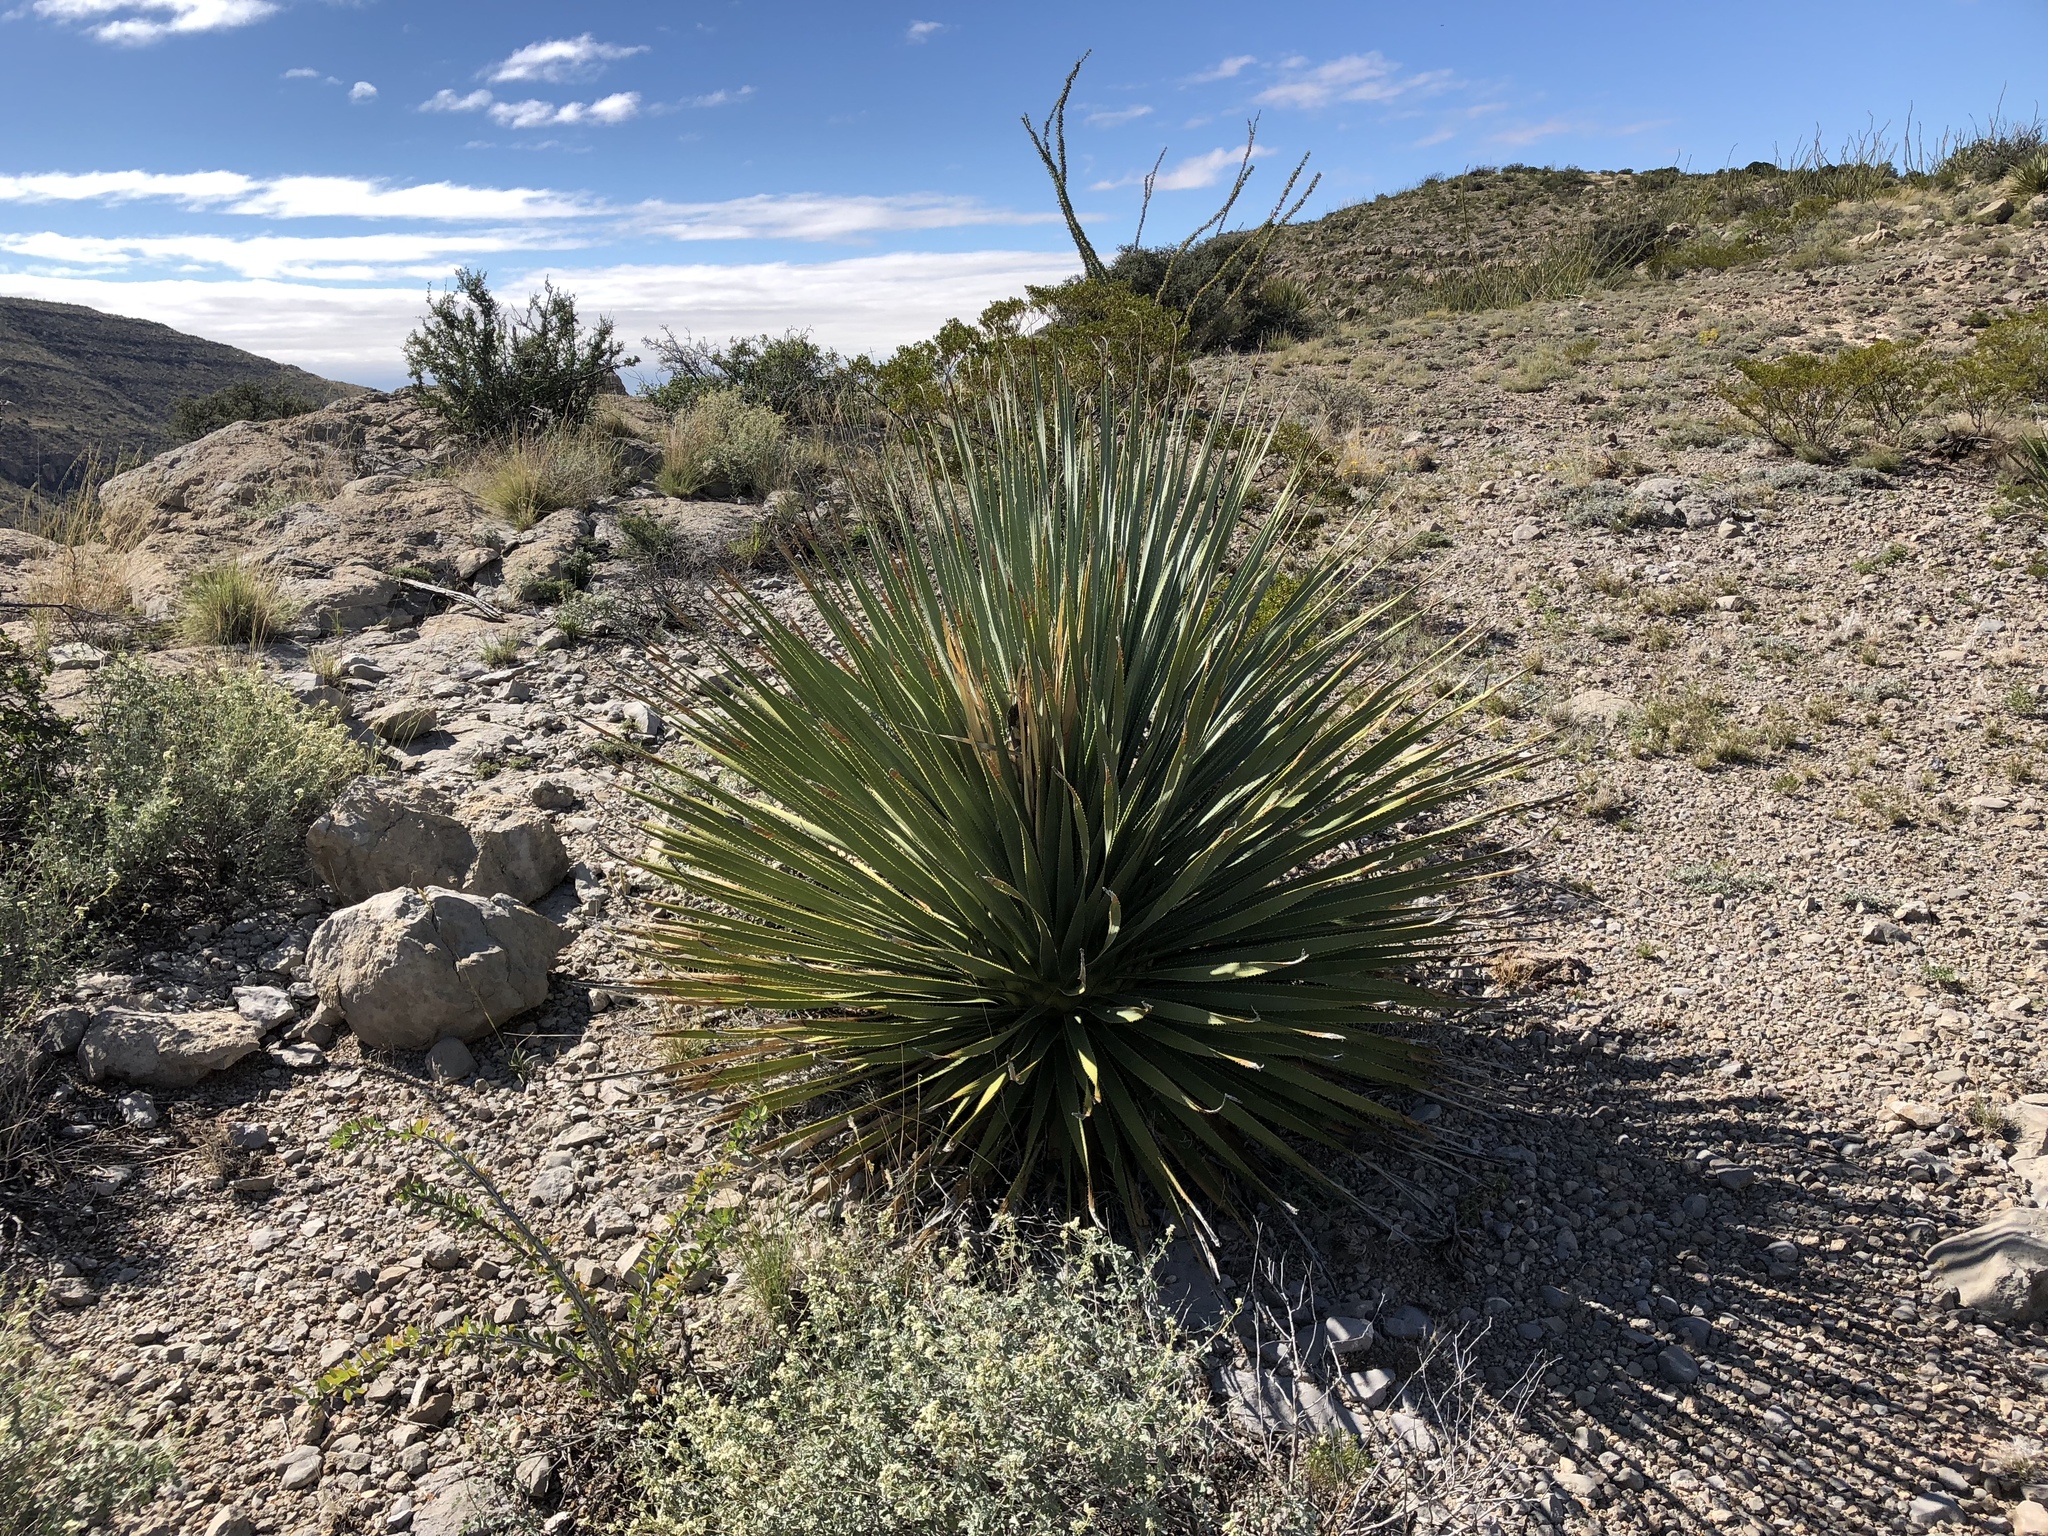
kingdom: Plantae
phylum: Tracheophyta
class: Liliopsida
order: Asparagales
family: Asparagaceae
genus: Dasylirion
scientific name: Dasylirion wheeleri
